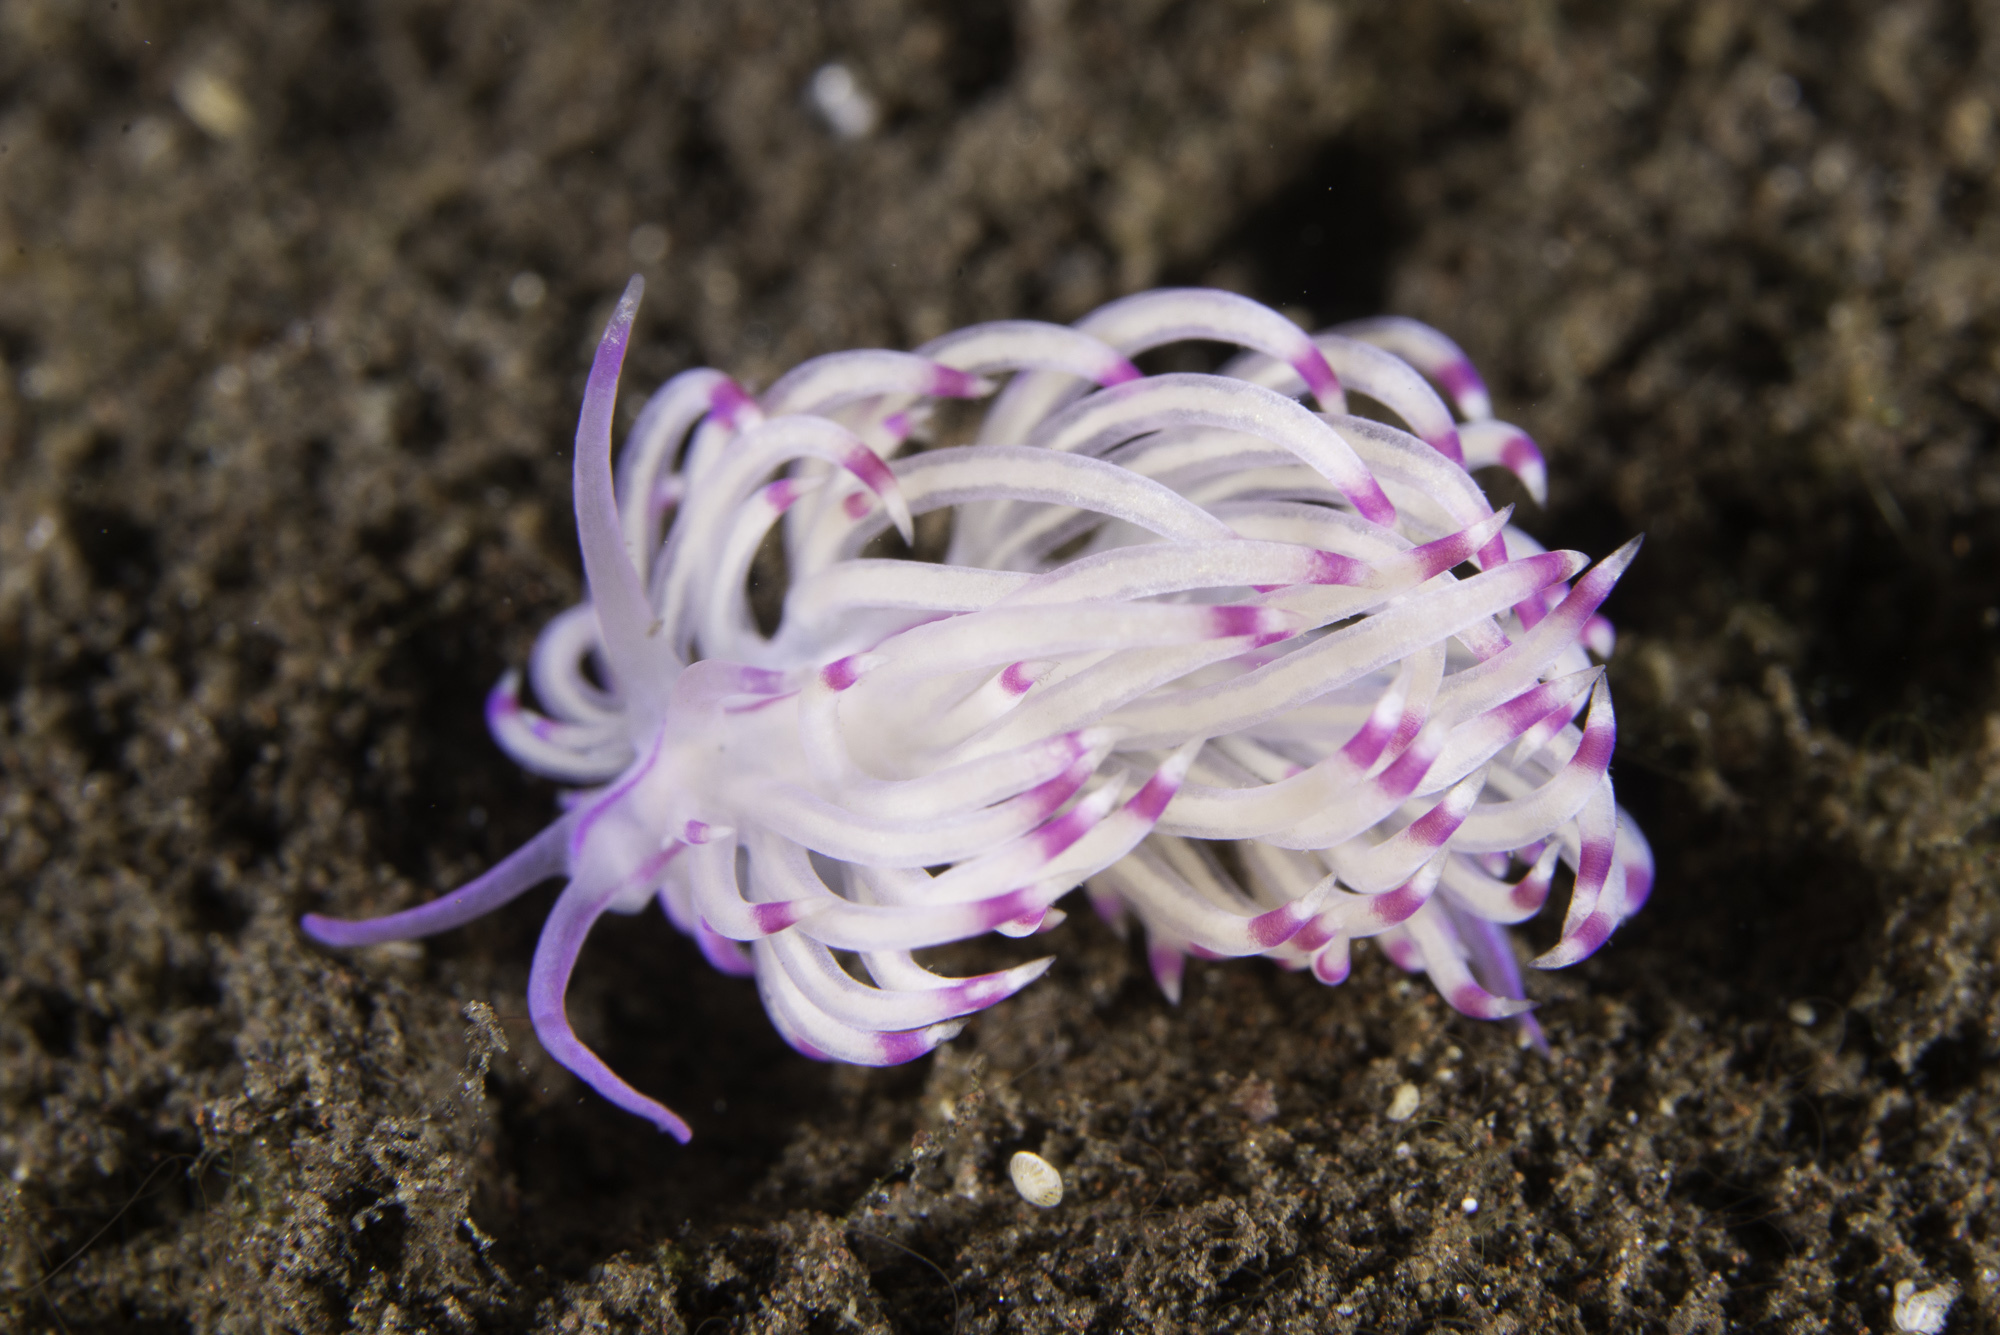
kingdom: Animalia
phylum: Mollusca
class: Gastropoda
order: Nudibranchia
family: Unidentiidae
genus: Unidentia
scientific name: Unidentia sandramillenae
